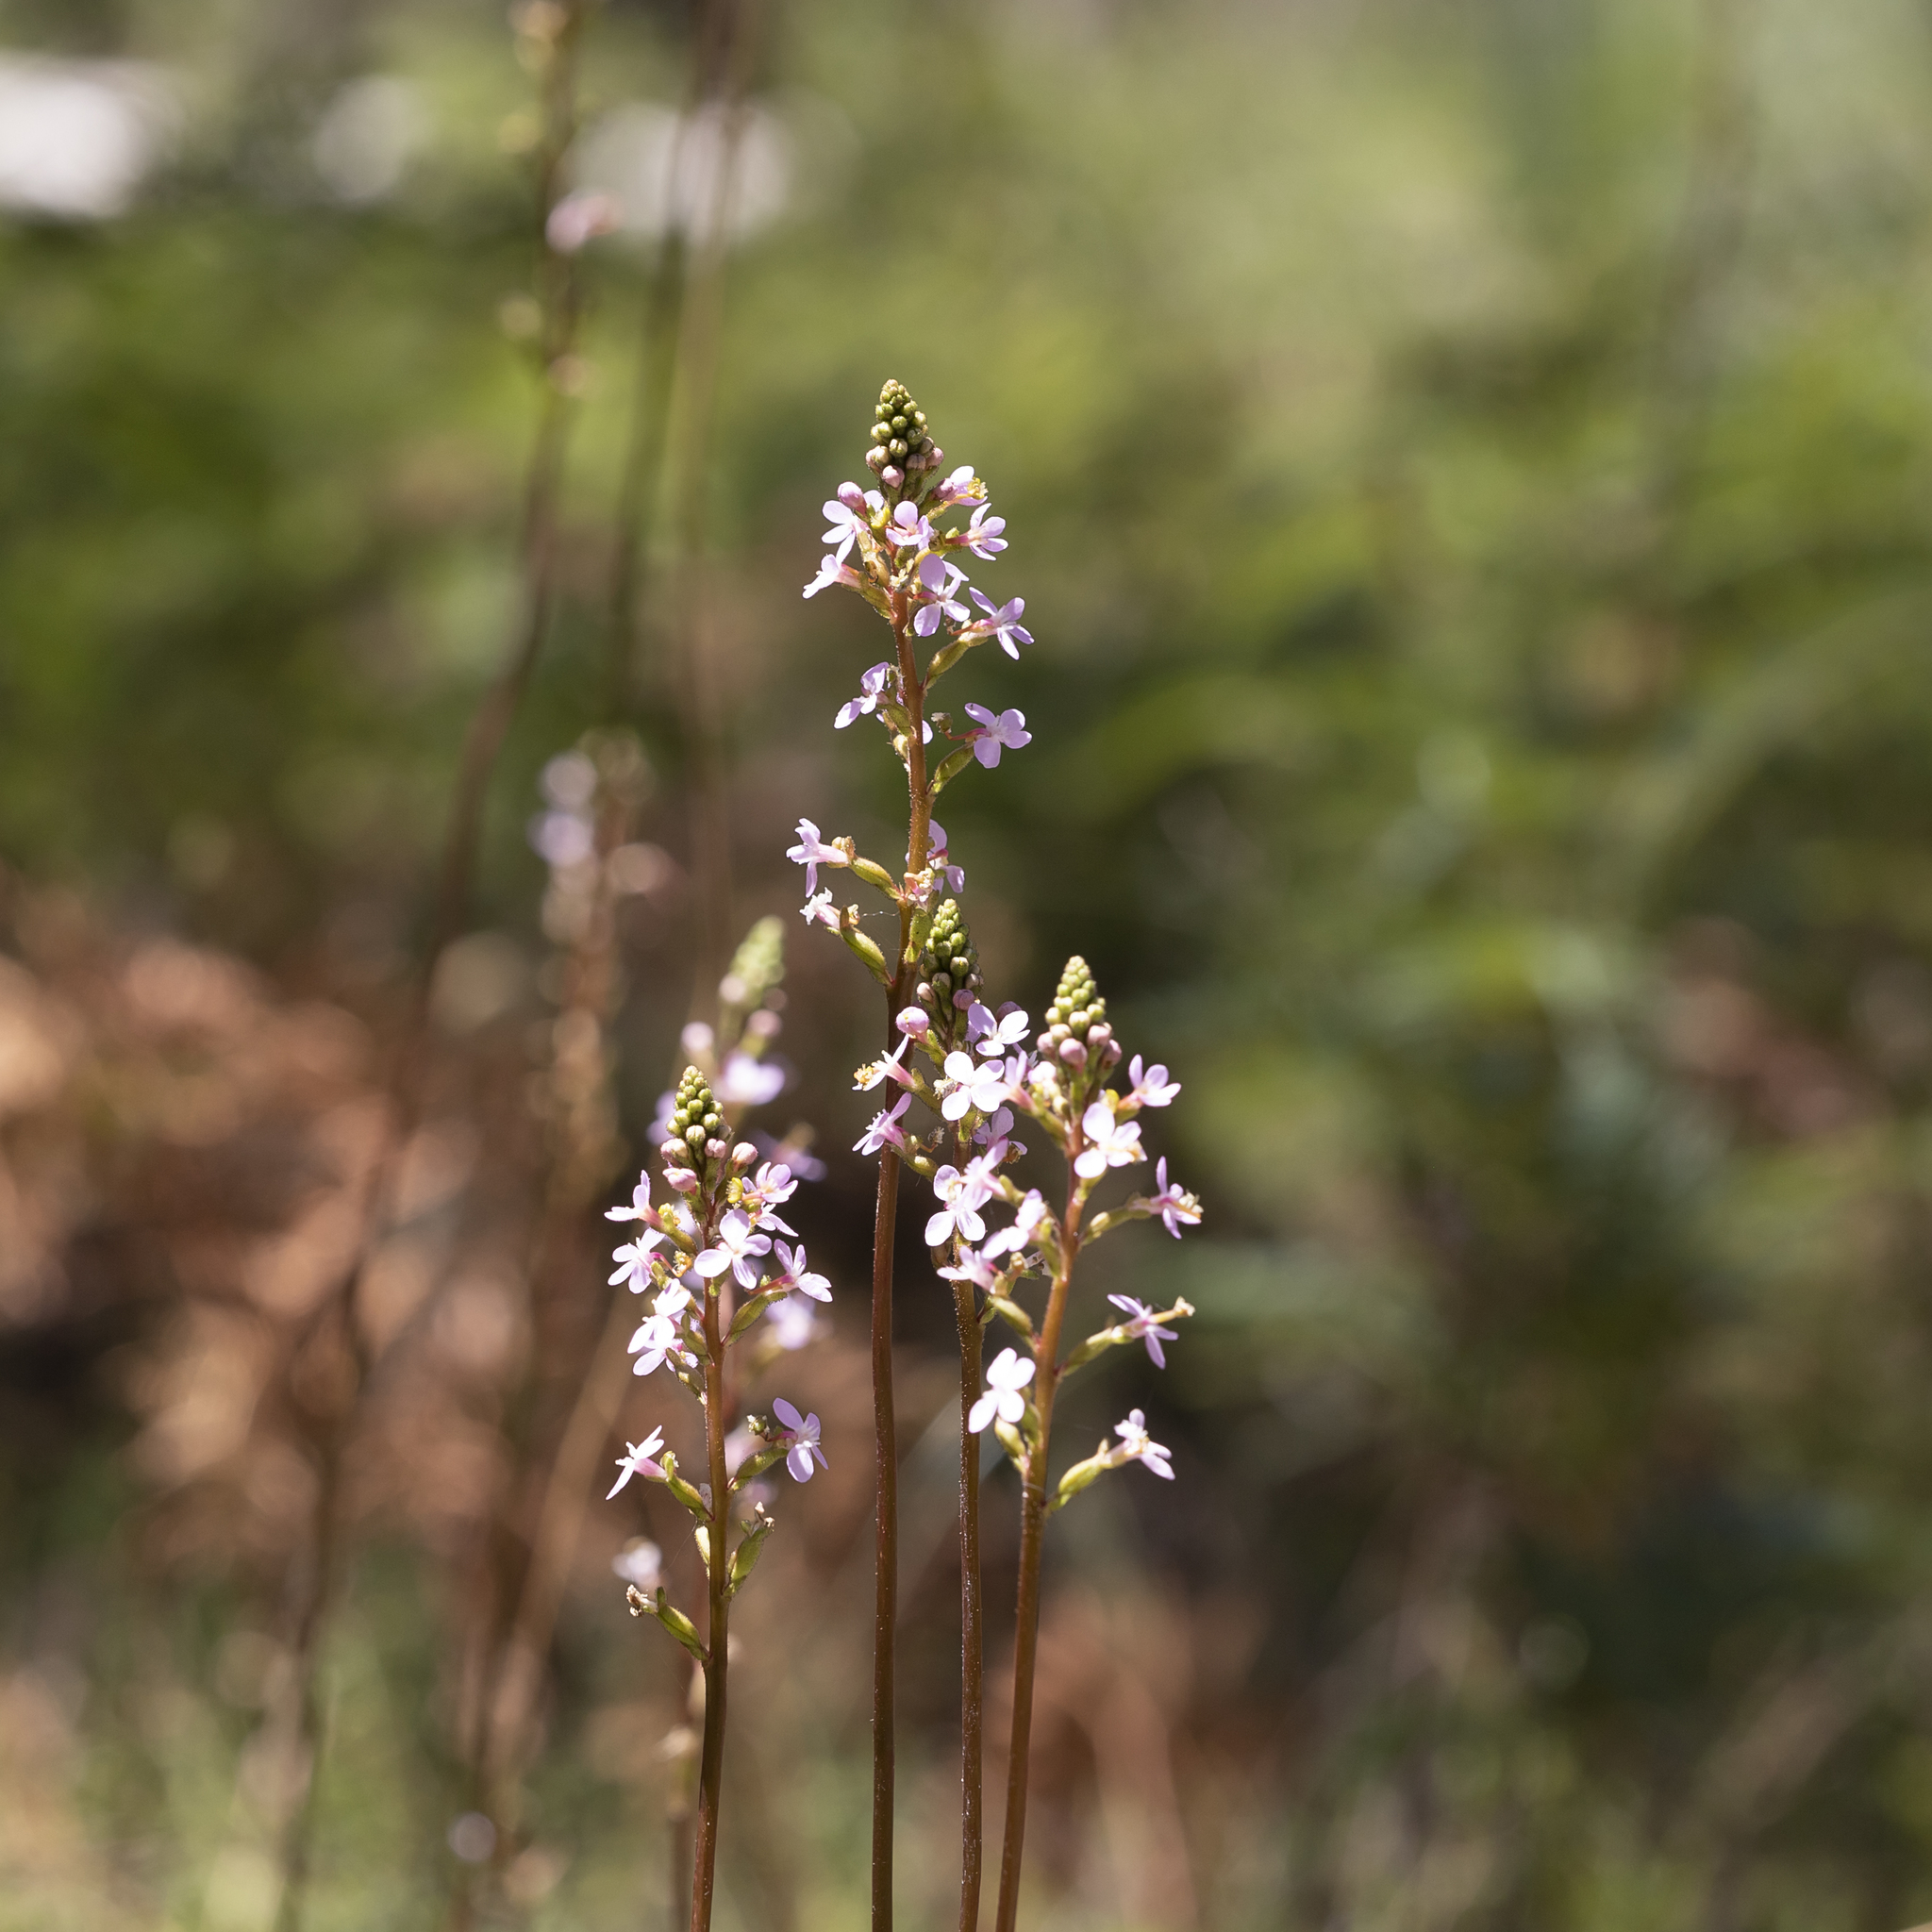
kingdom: Plantae
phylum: Tracheophyta
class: Magnoliopsida
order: Asterales
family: Stylidiaceae
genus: Stylidium
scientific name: Stylidium armeria
